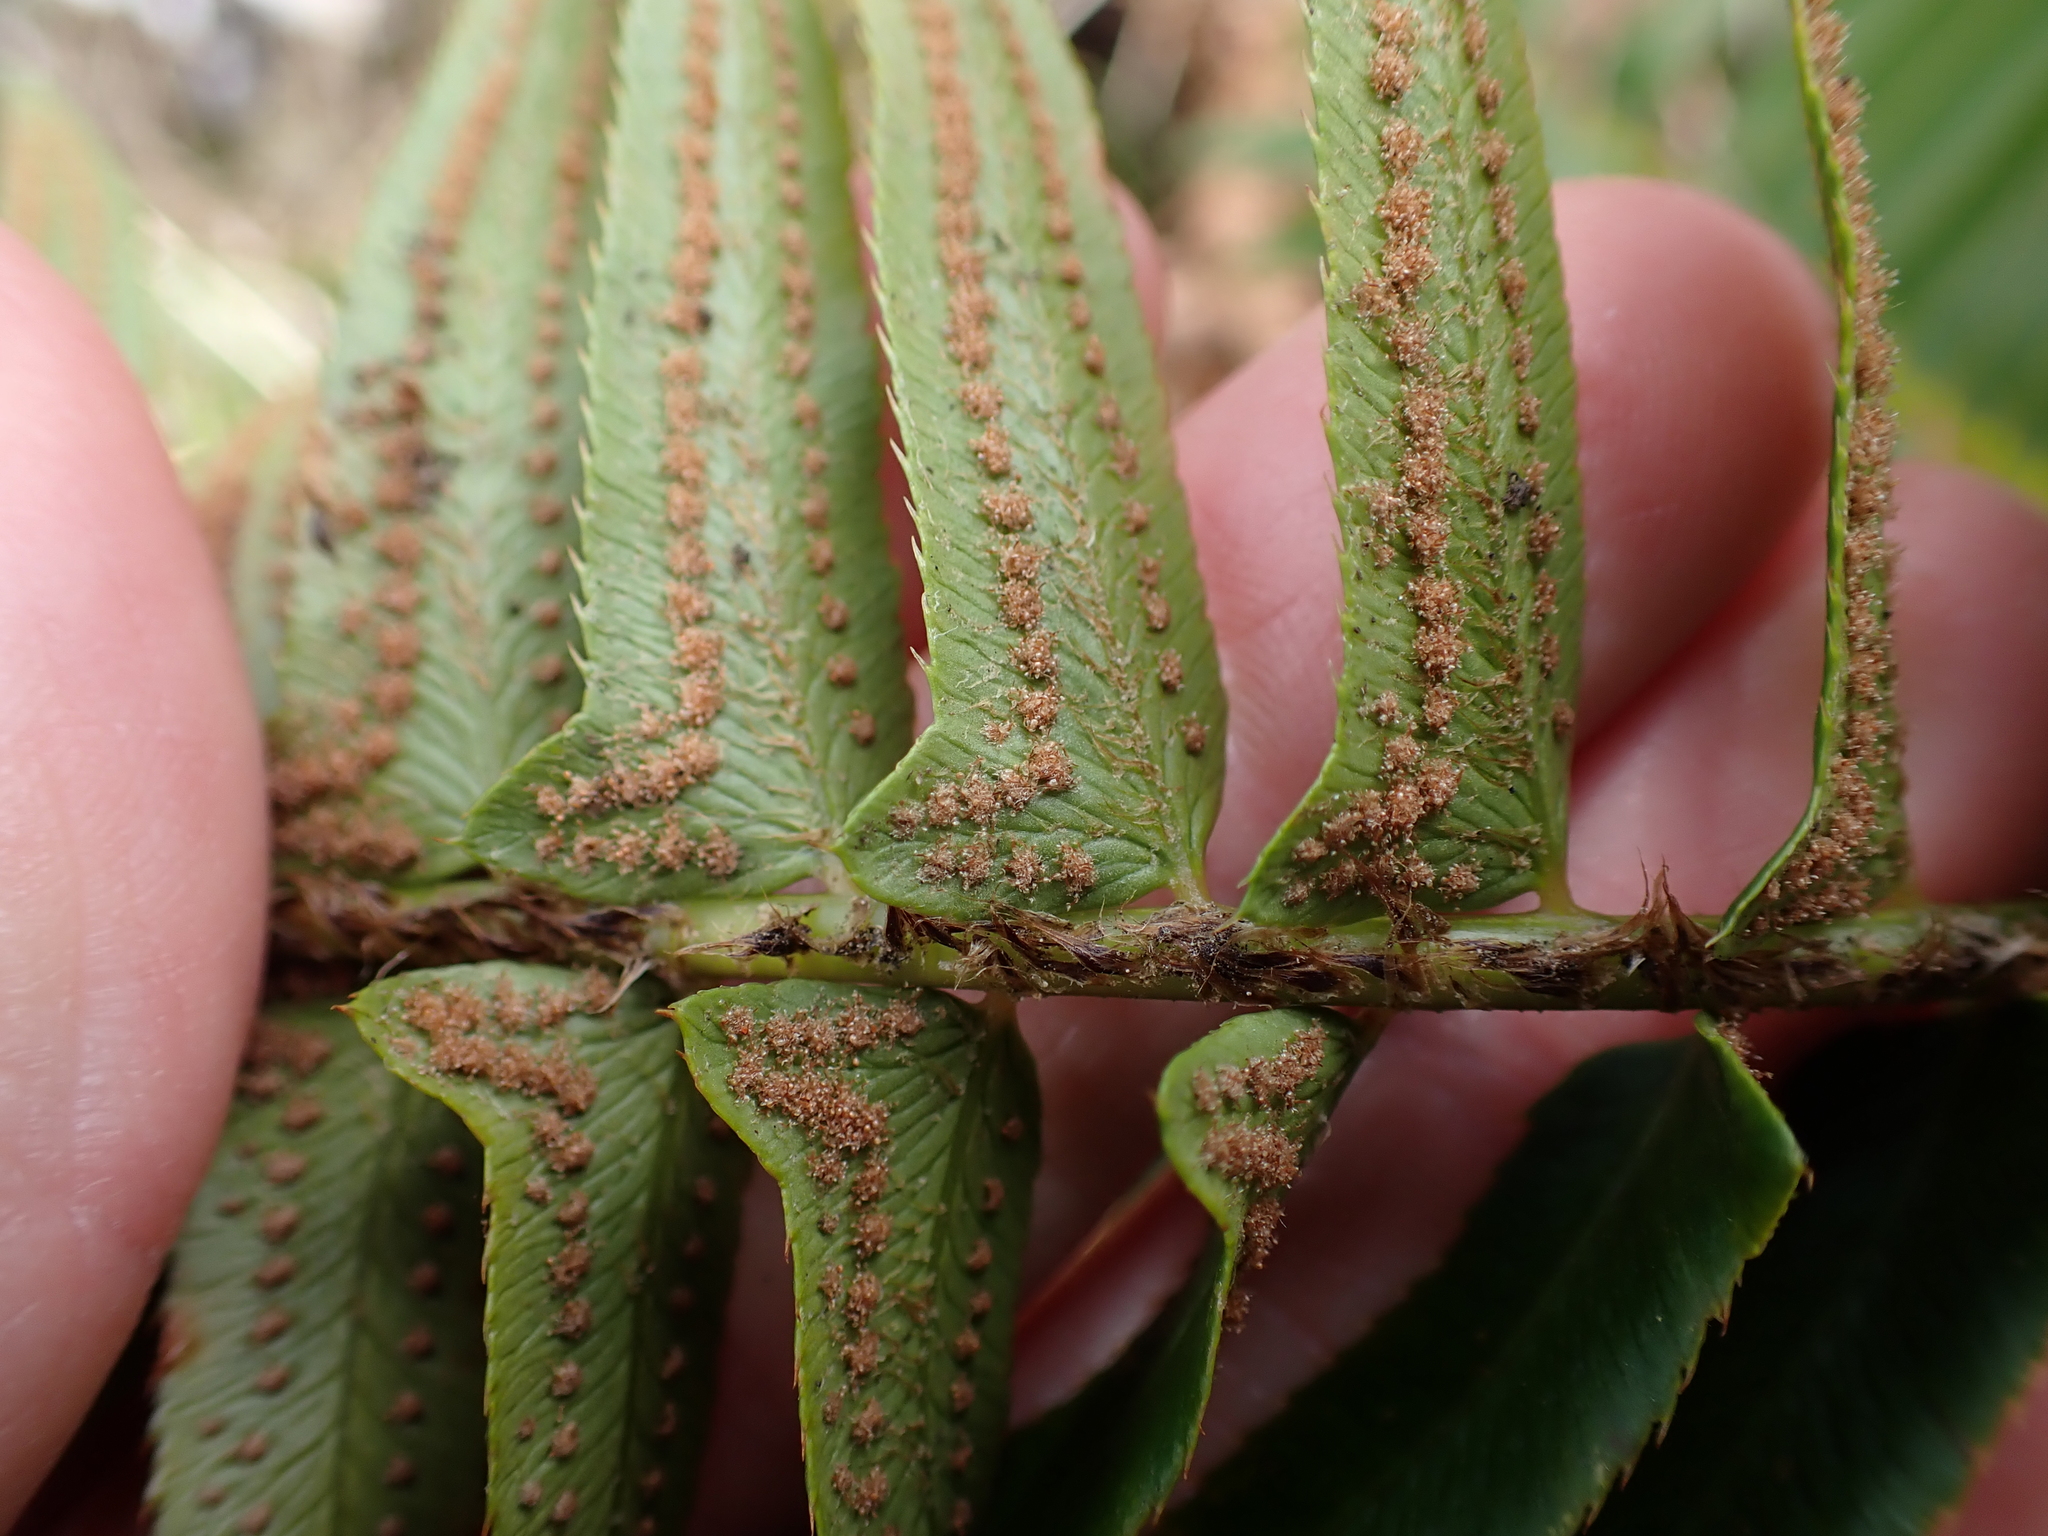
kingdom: Plantae
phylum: Tracheophyta
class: Polypodiopsida
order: Polypodiales
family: Dryopteridaceae
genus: Polystichum
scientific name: Polystichum munitum
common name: Western sword-fern
